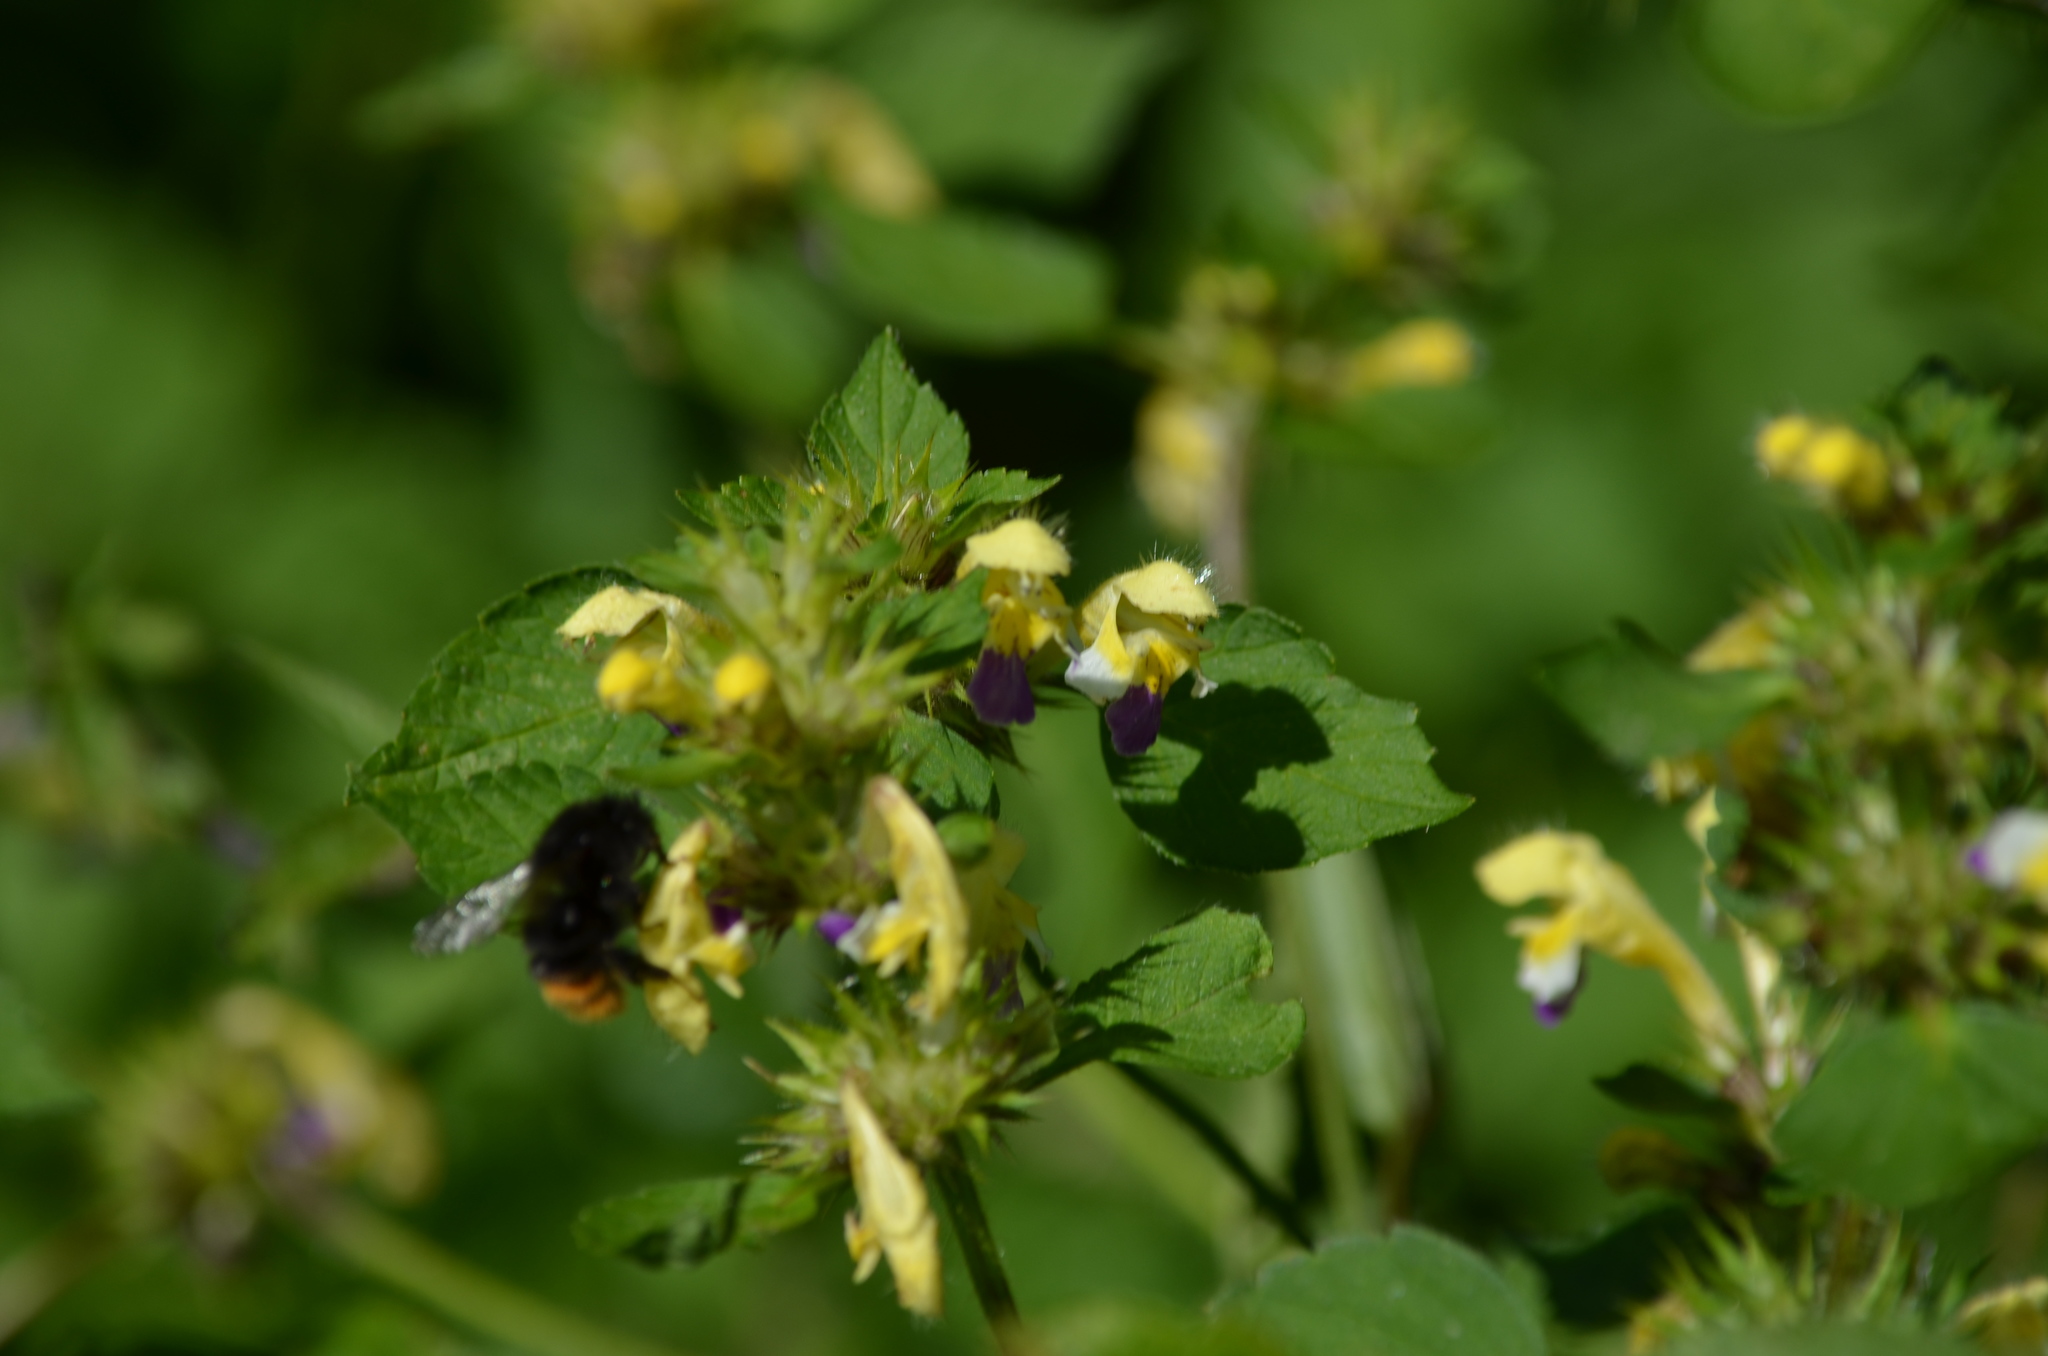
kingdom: Animalia
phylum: Arthropoda
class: Insecta
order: Hymenoptera
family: Apidae
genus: Bombus
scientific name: Bombus wurflenii
